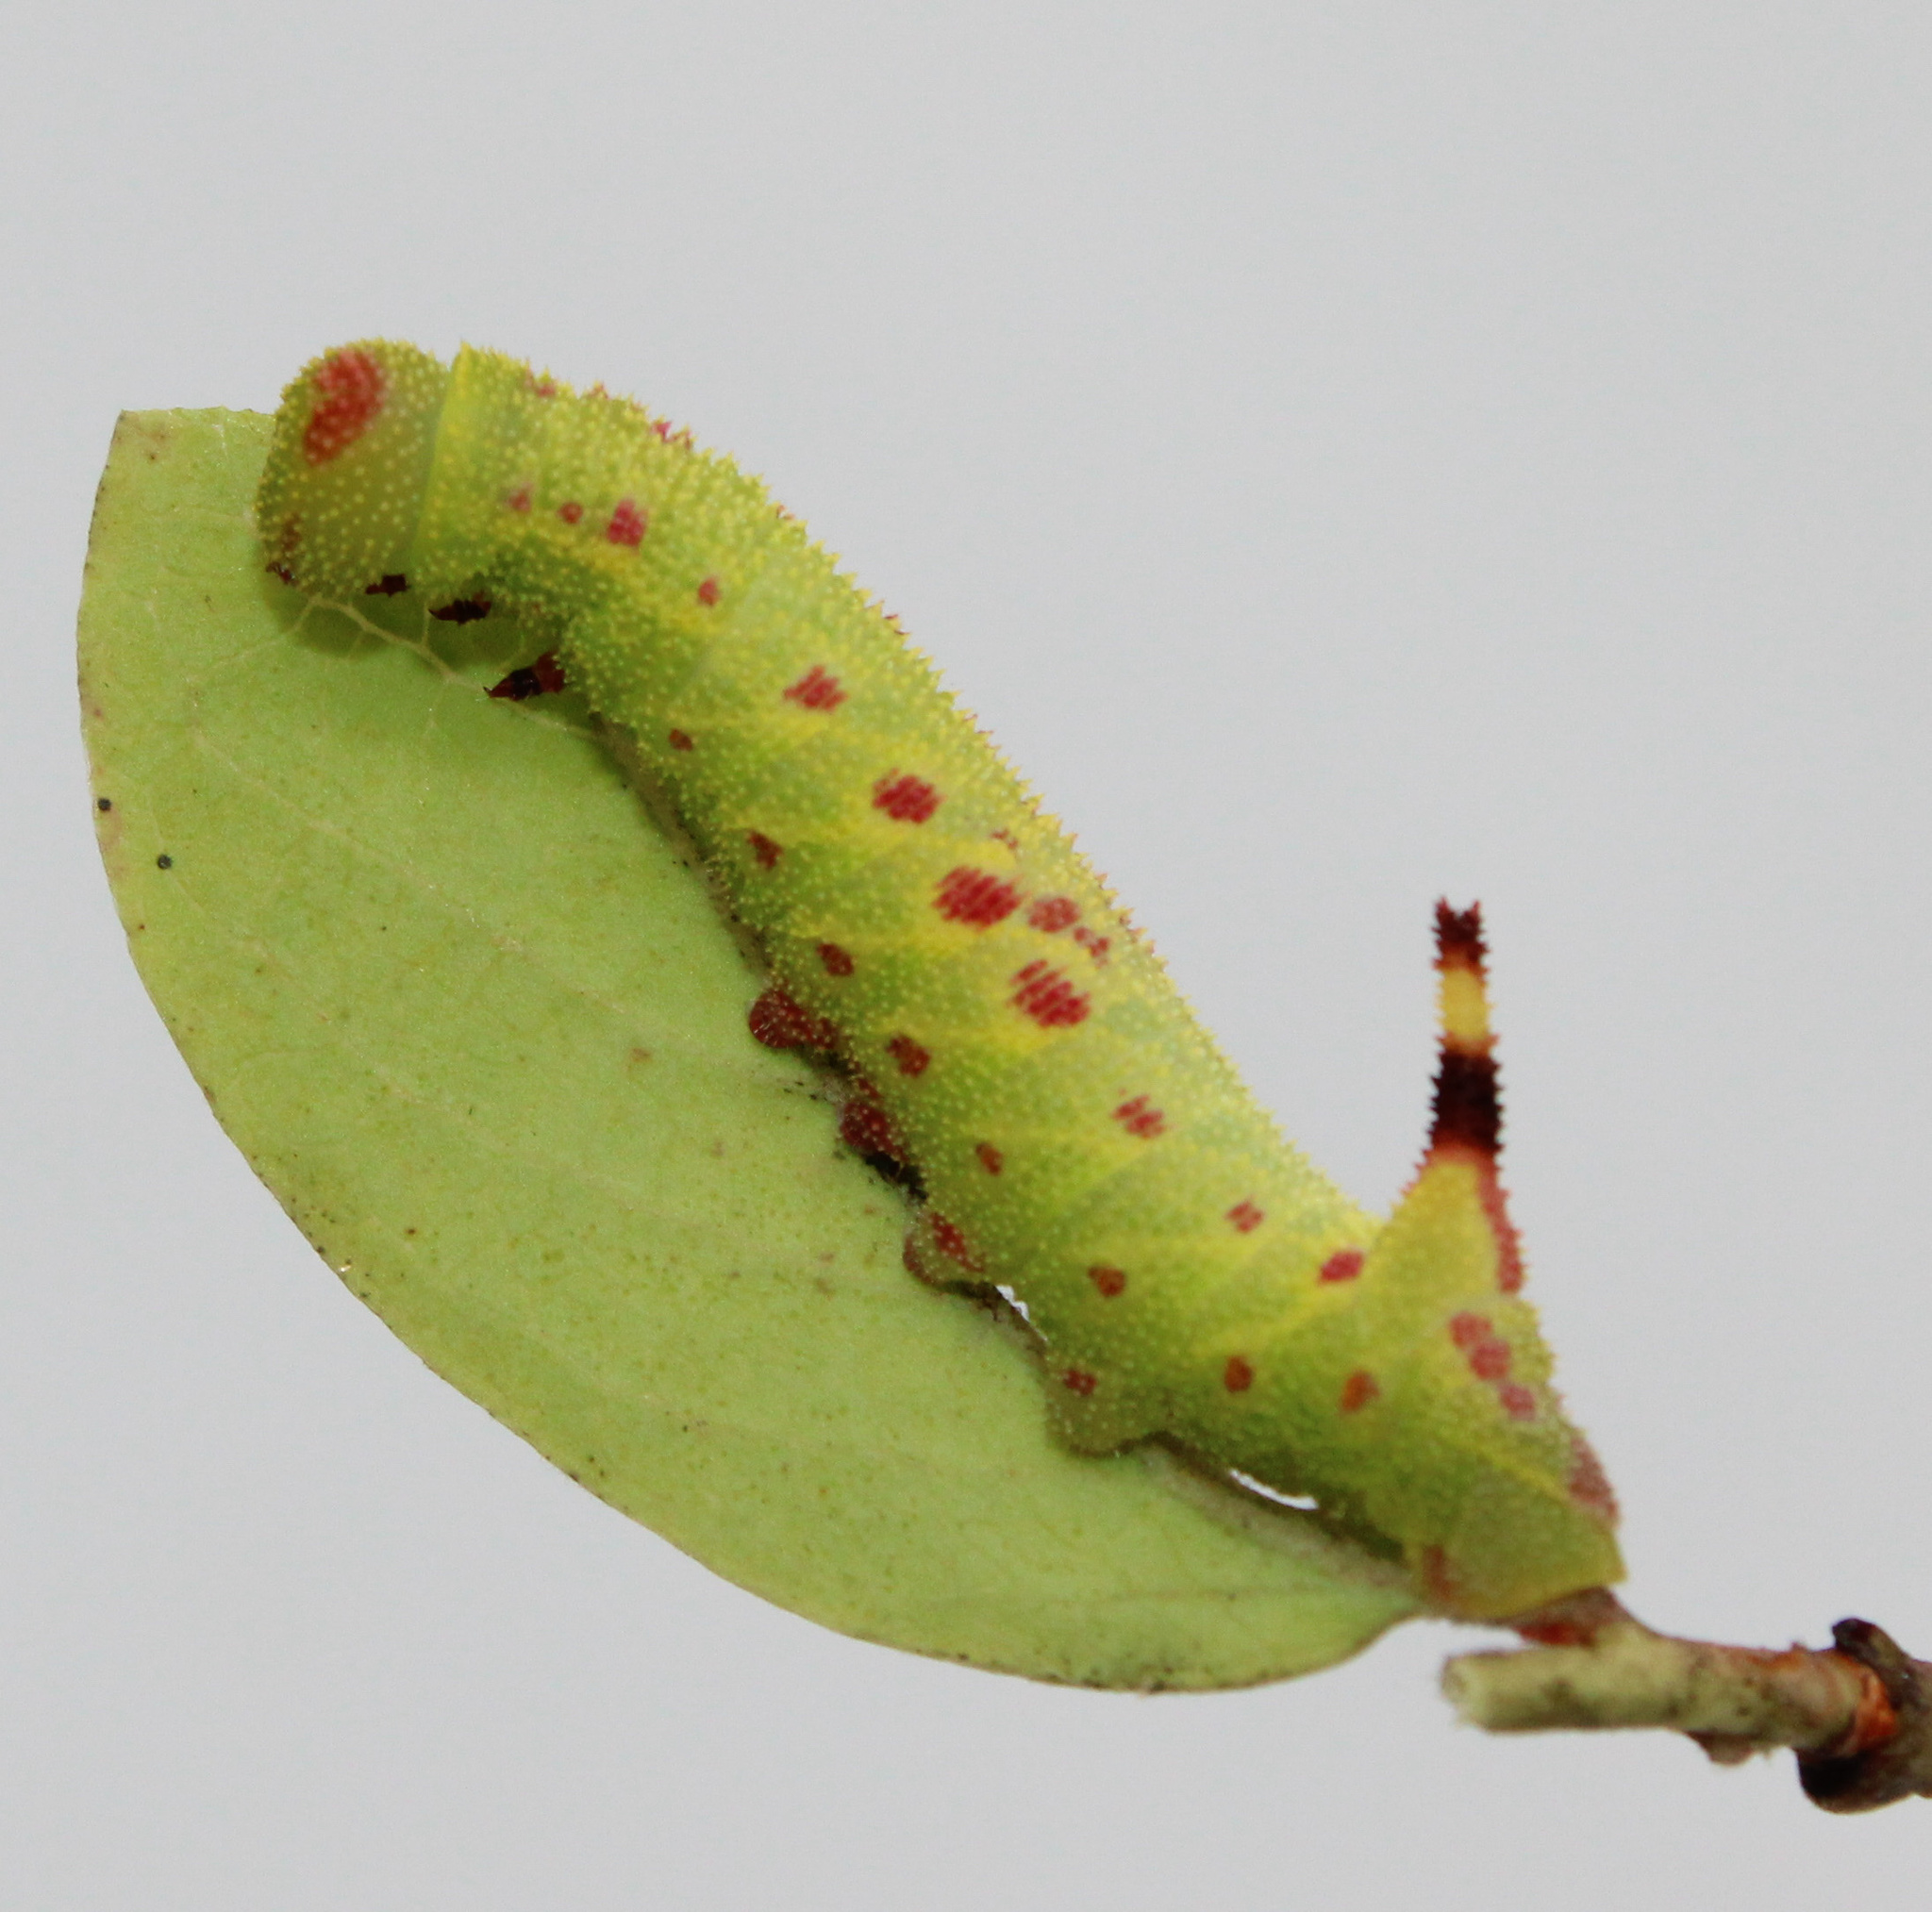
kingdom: Animalia
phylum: Arthropoda
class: Insecta
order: Lepidoptera
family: Sphingidae
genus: Paonias
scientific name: Paonias astylus
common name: Huckleberry sphinx
